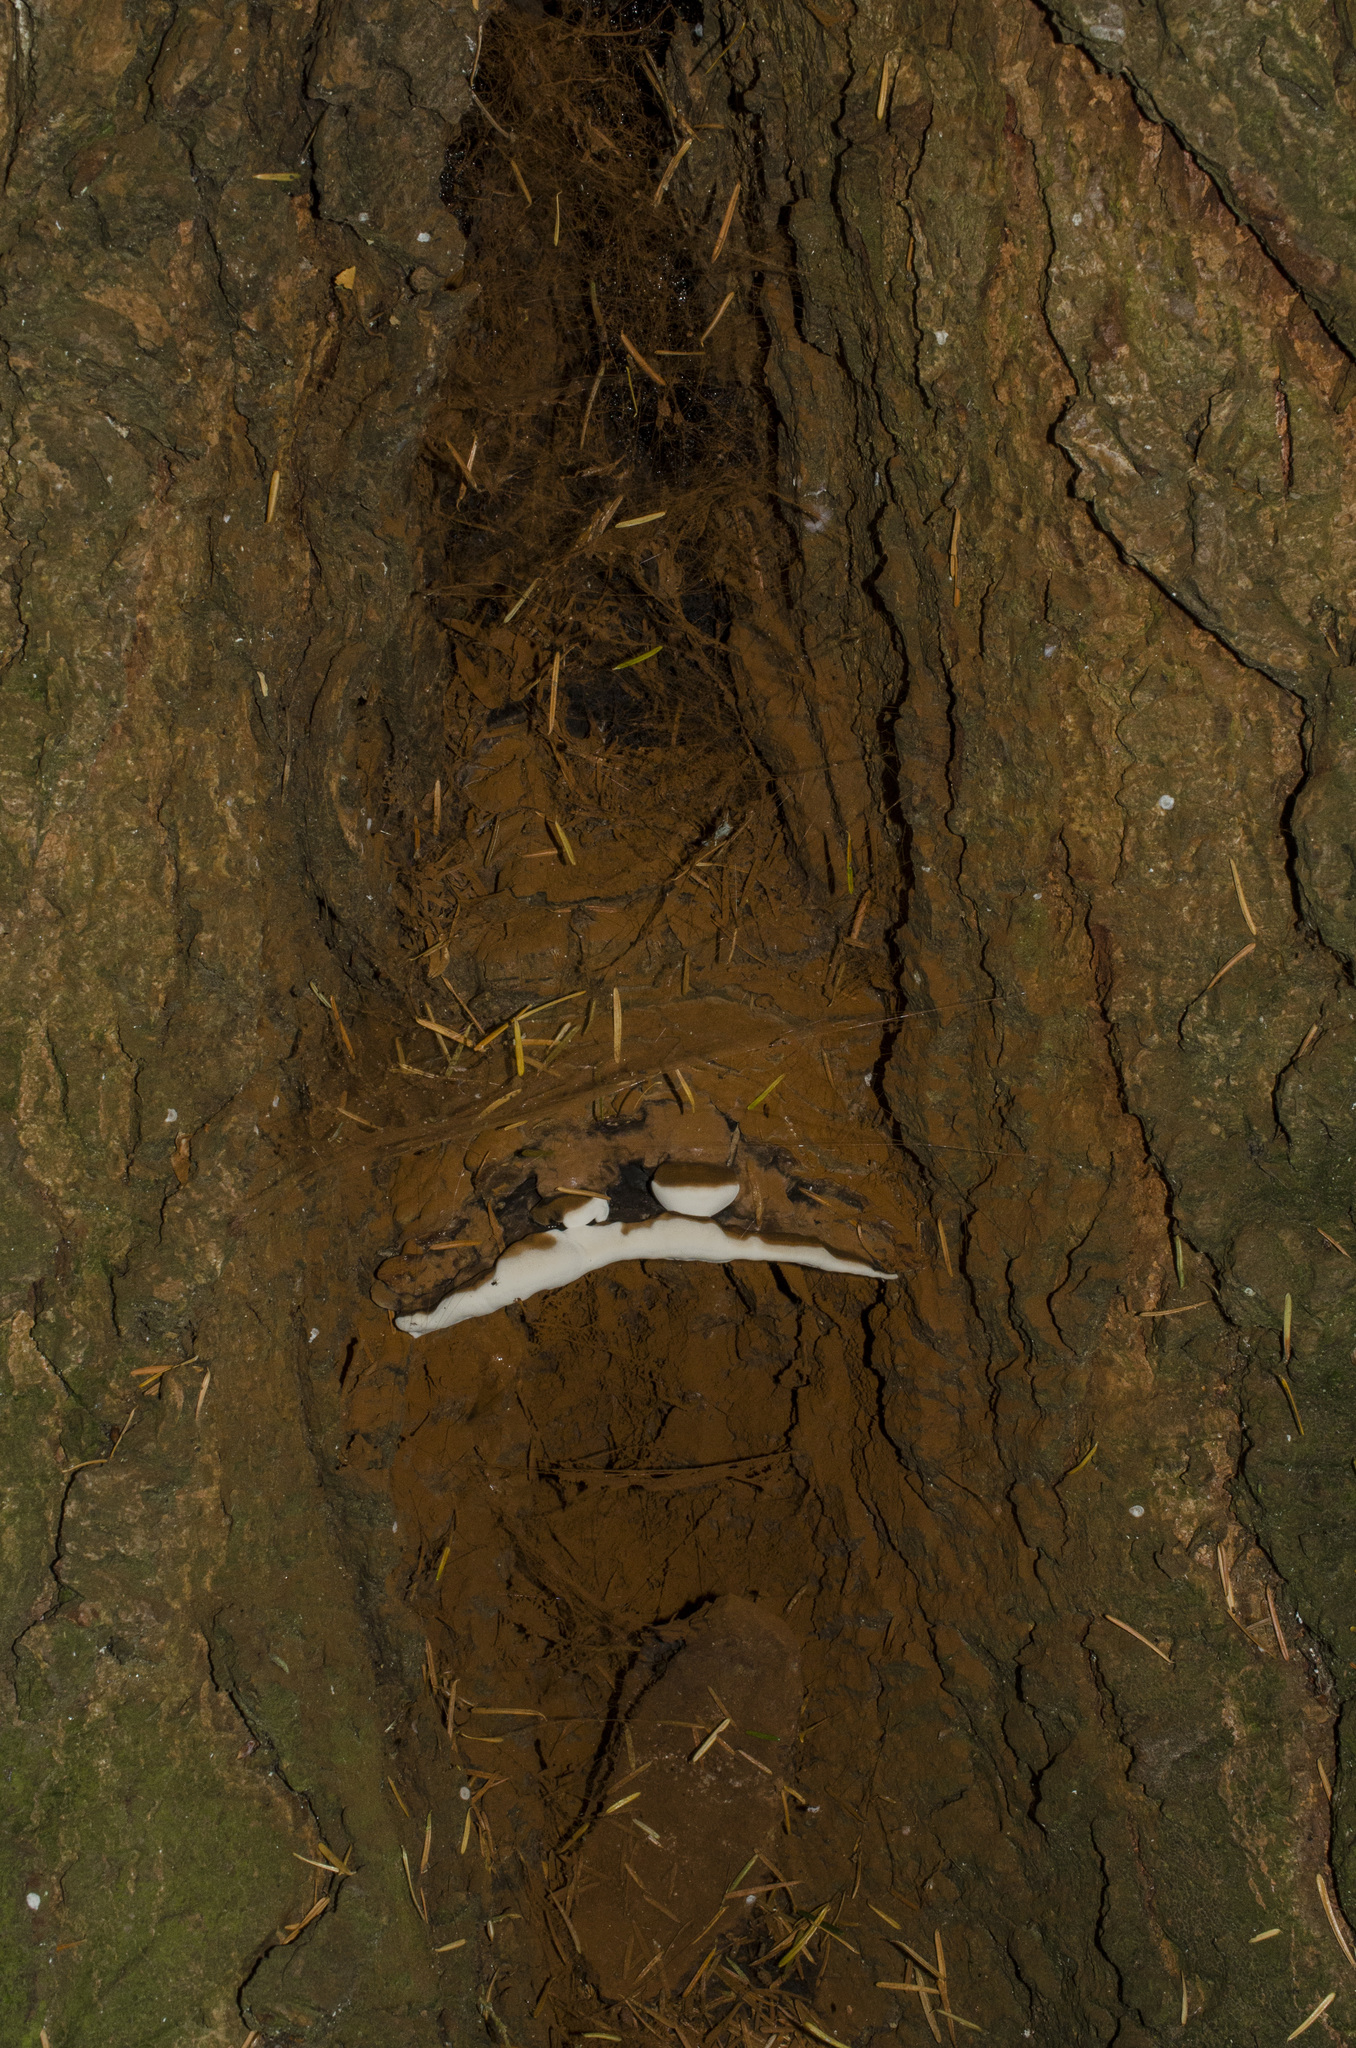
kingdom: Fungi
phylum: Basidiomycota
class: Agaricomycetes
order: Polyporales
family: Polyporaceae
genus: Ganoderma
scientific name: Ganoderma applanatum
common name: Artist's bracket
